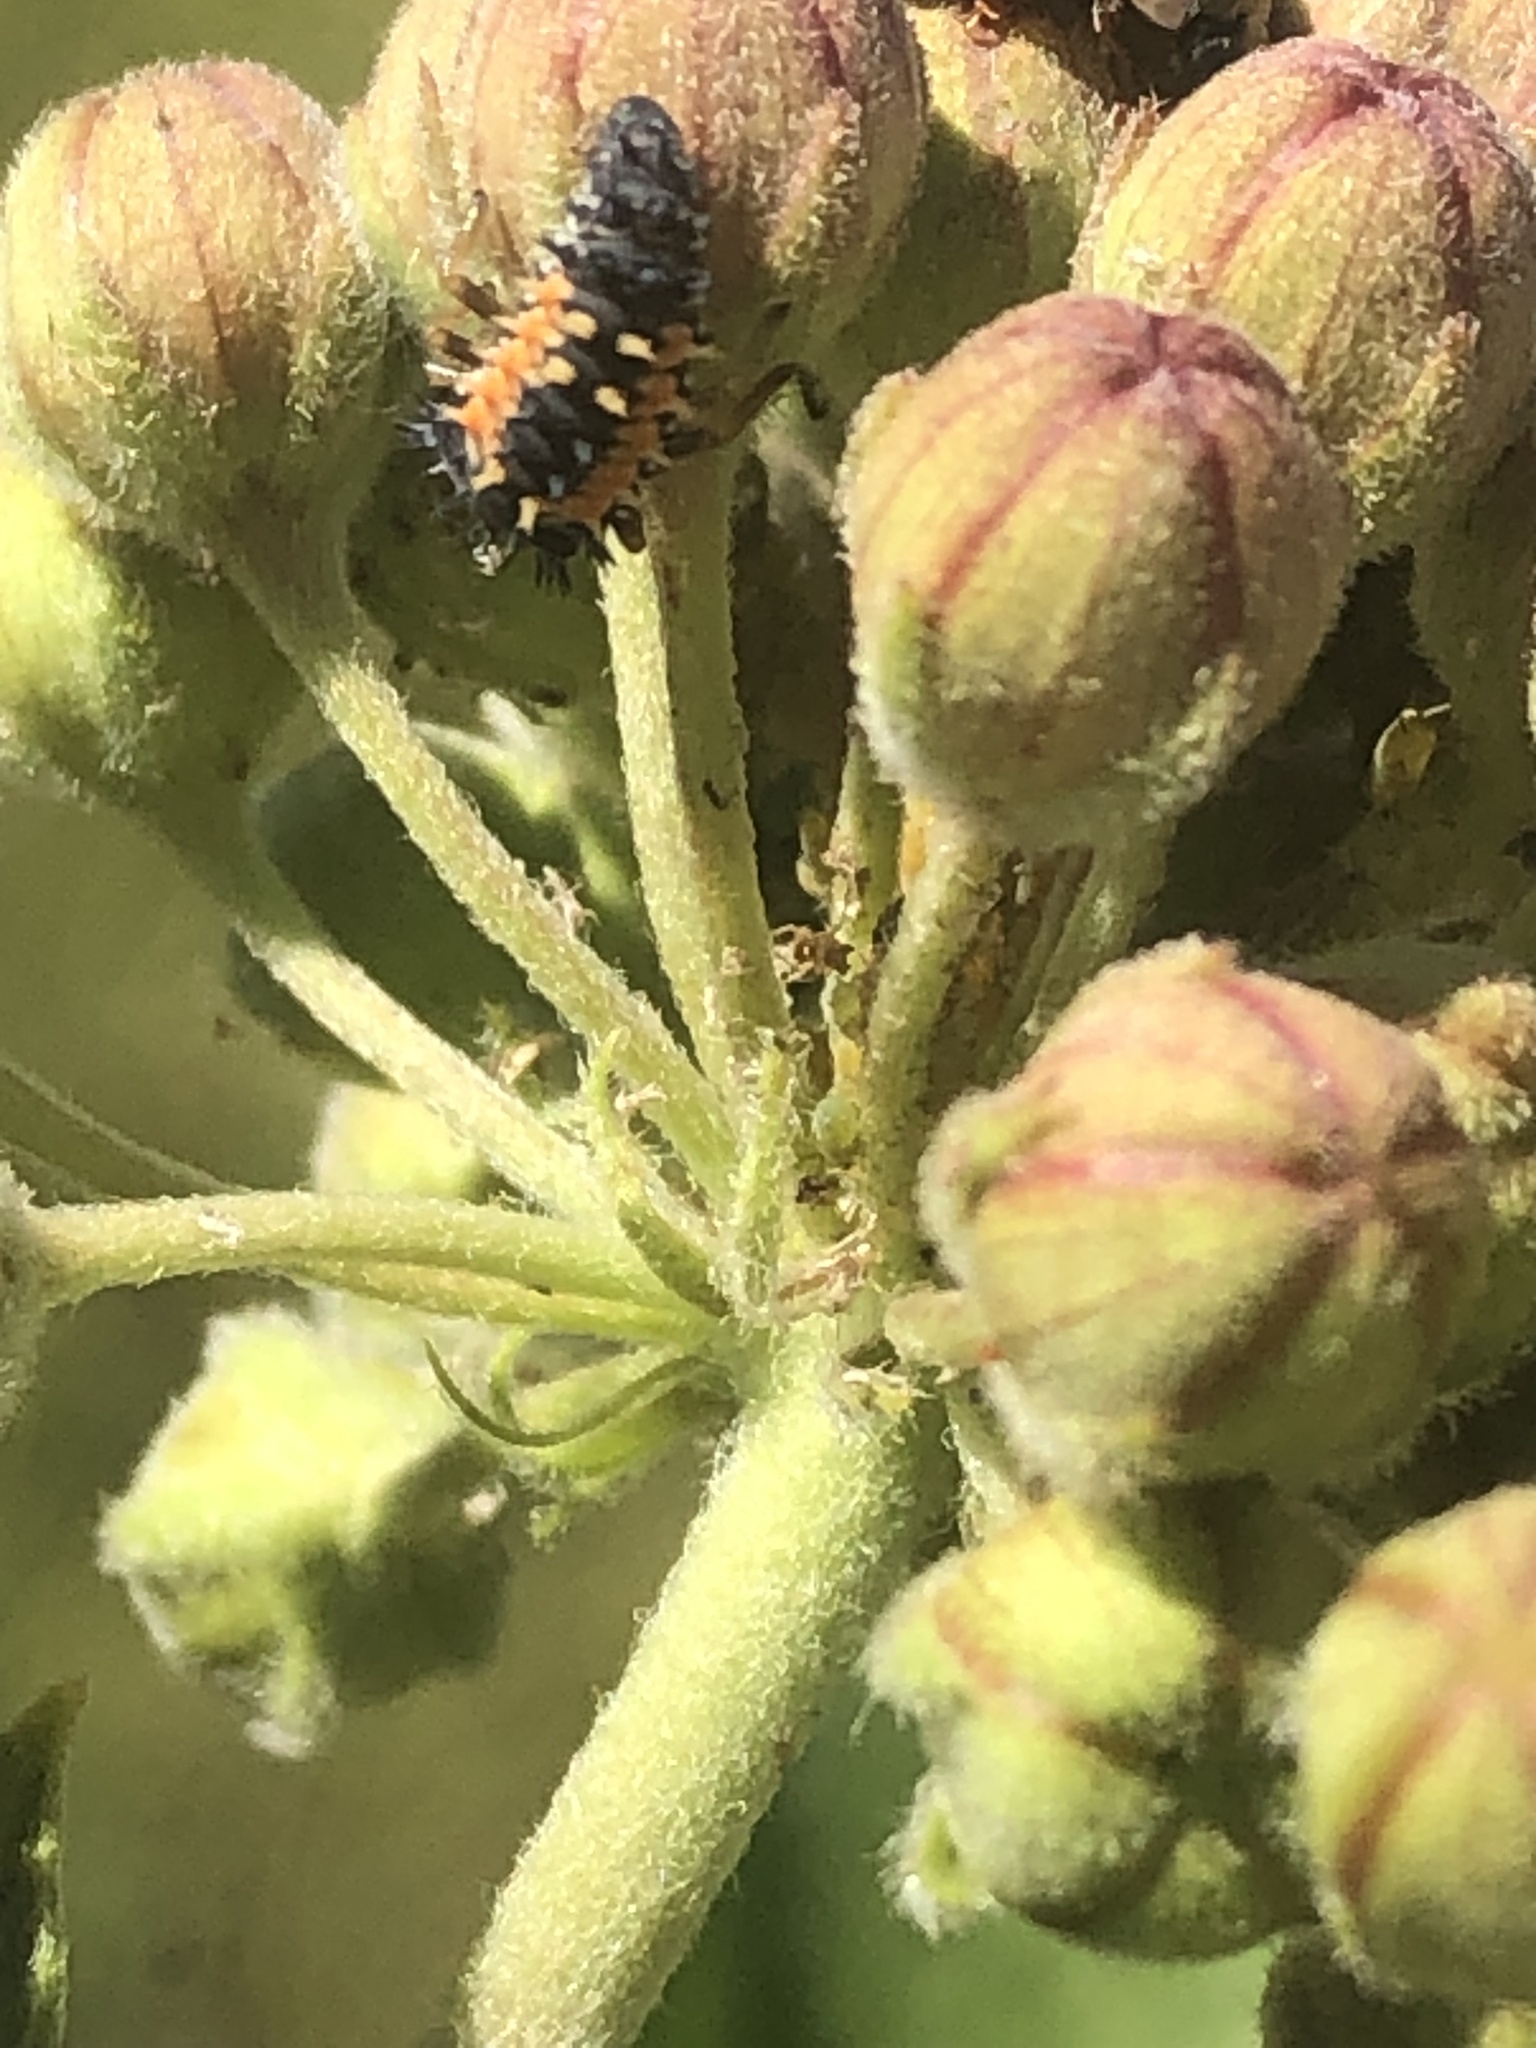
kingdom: Animalia
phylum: Arthropoda
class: Insecta
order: Coleoptera
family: Coccinellidae
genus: Harmonia
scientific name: Harmonia axyridis
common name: Harlequin ladybird
